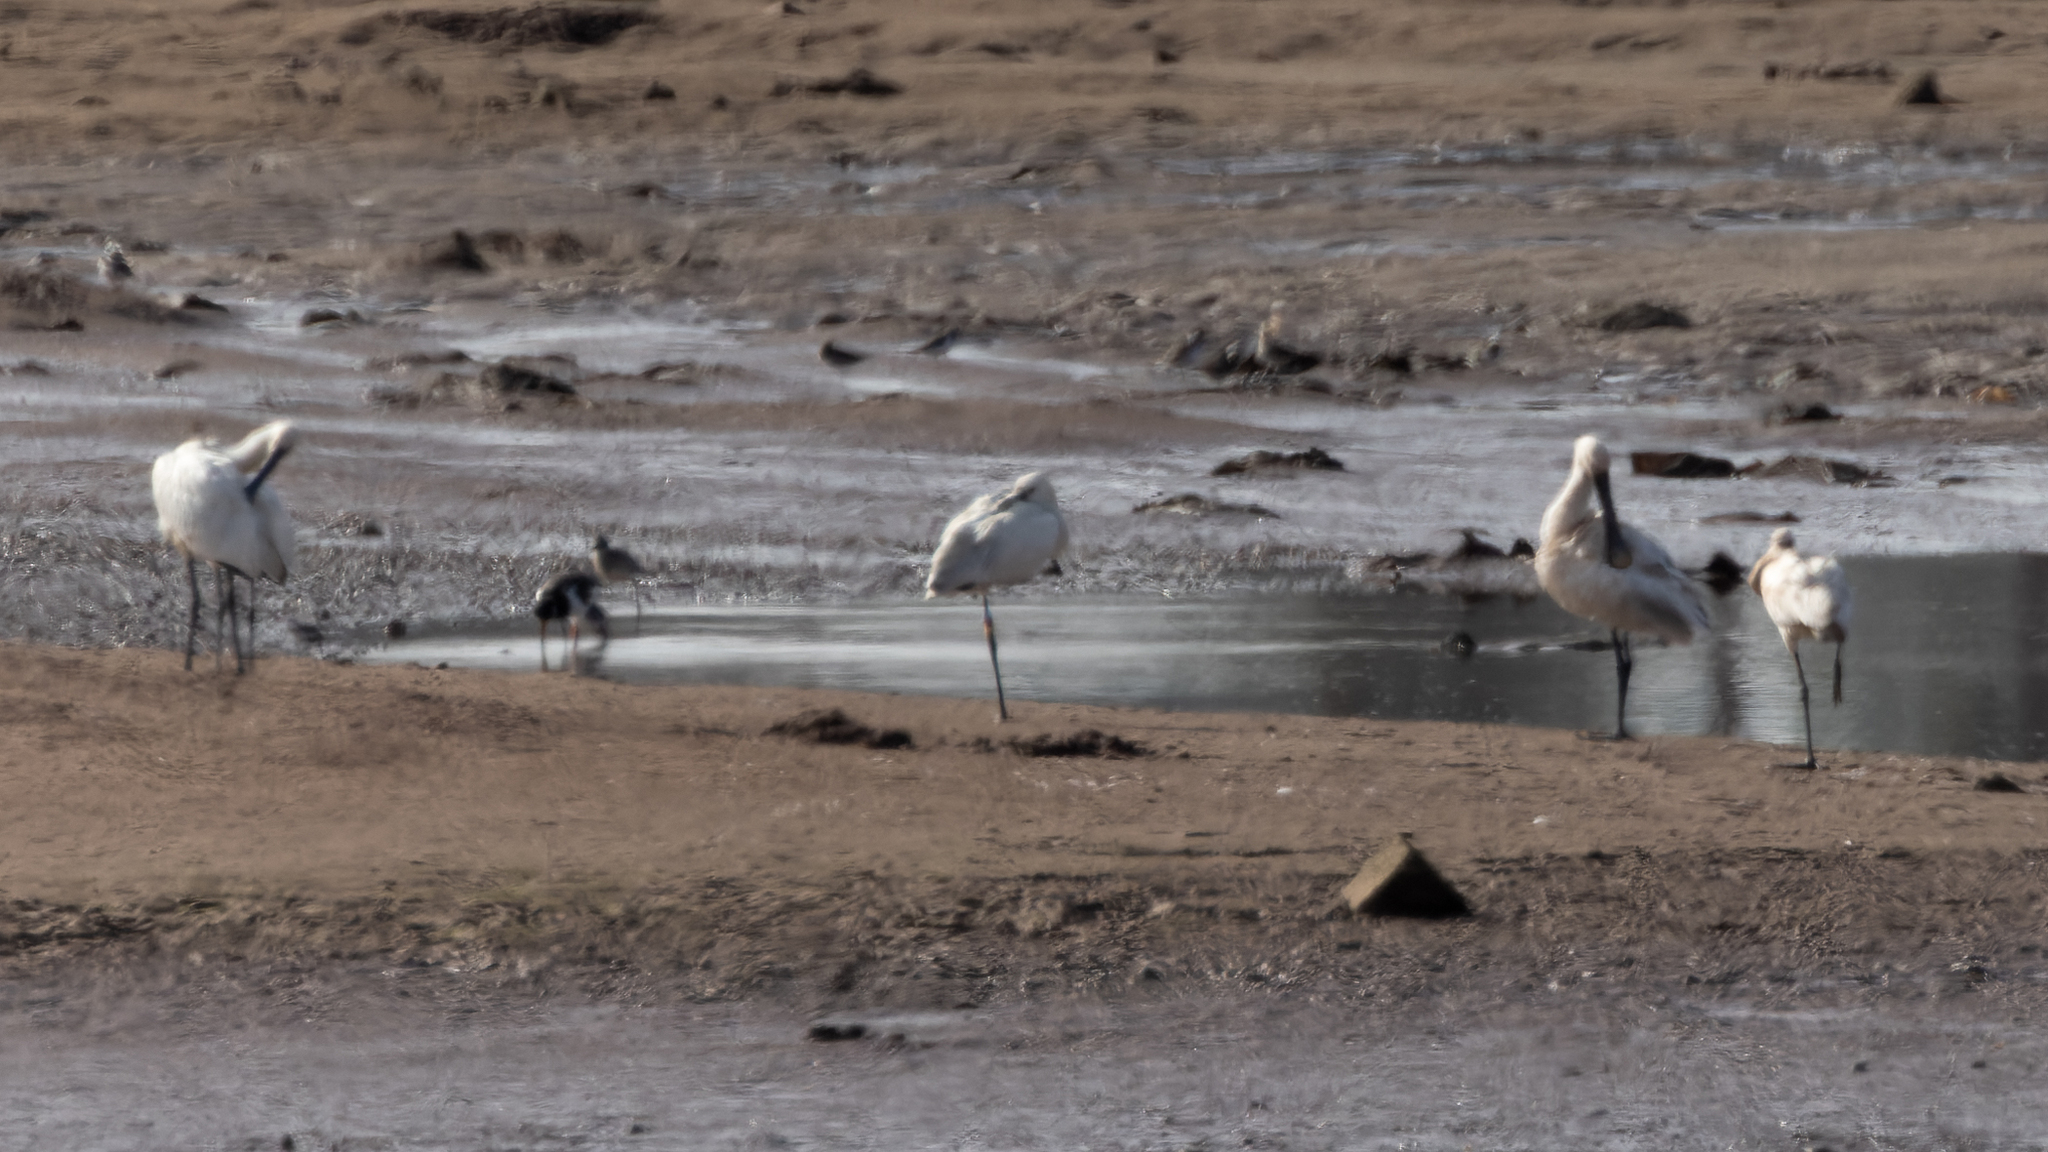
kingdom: Animalia
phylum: Chordata
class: Aves
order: Pelecaniformes
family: Threskiornithidae
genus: Platalea
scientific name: Platalea leucorodia
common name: Eurasian spoonbill
